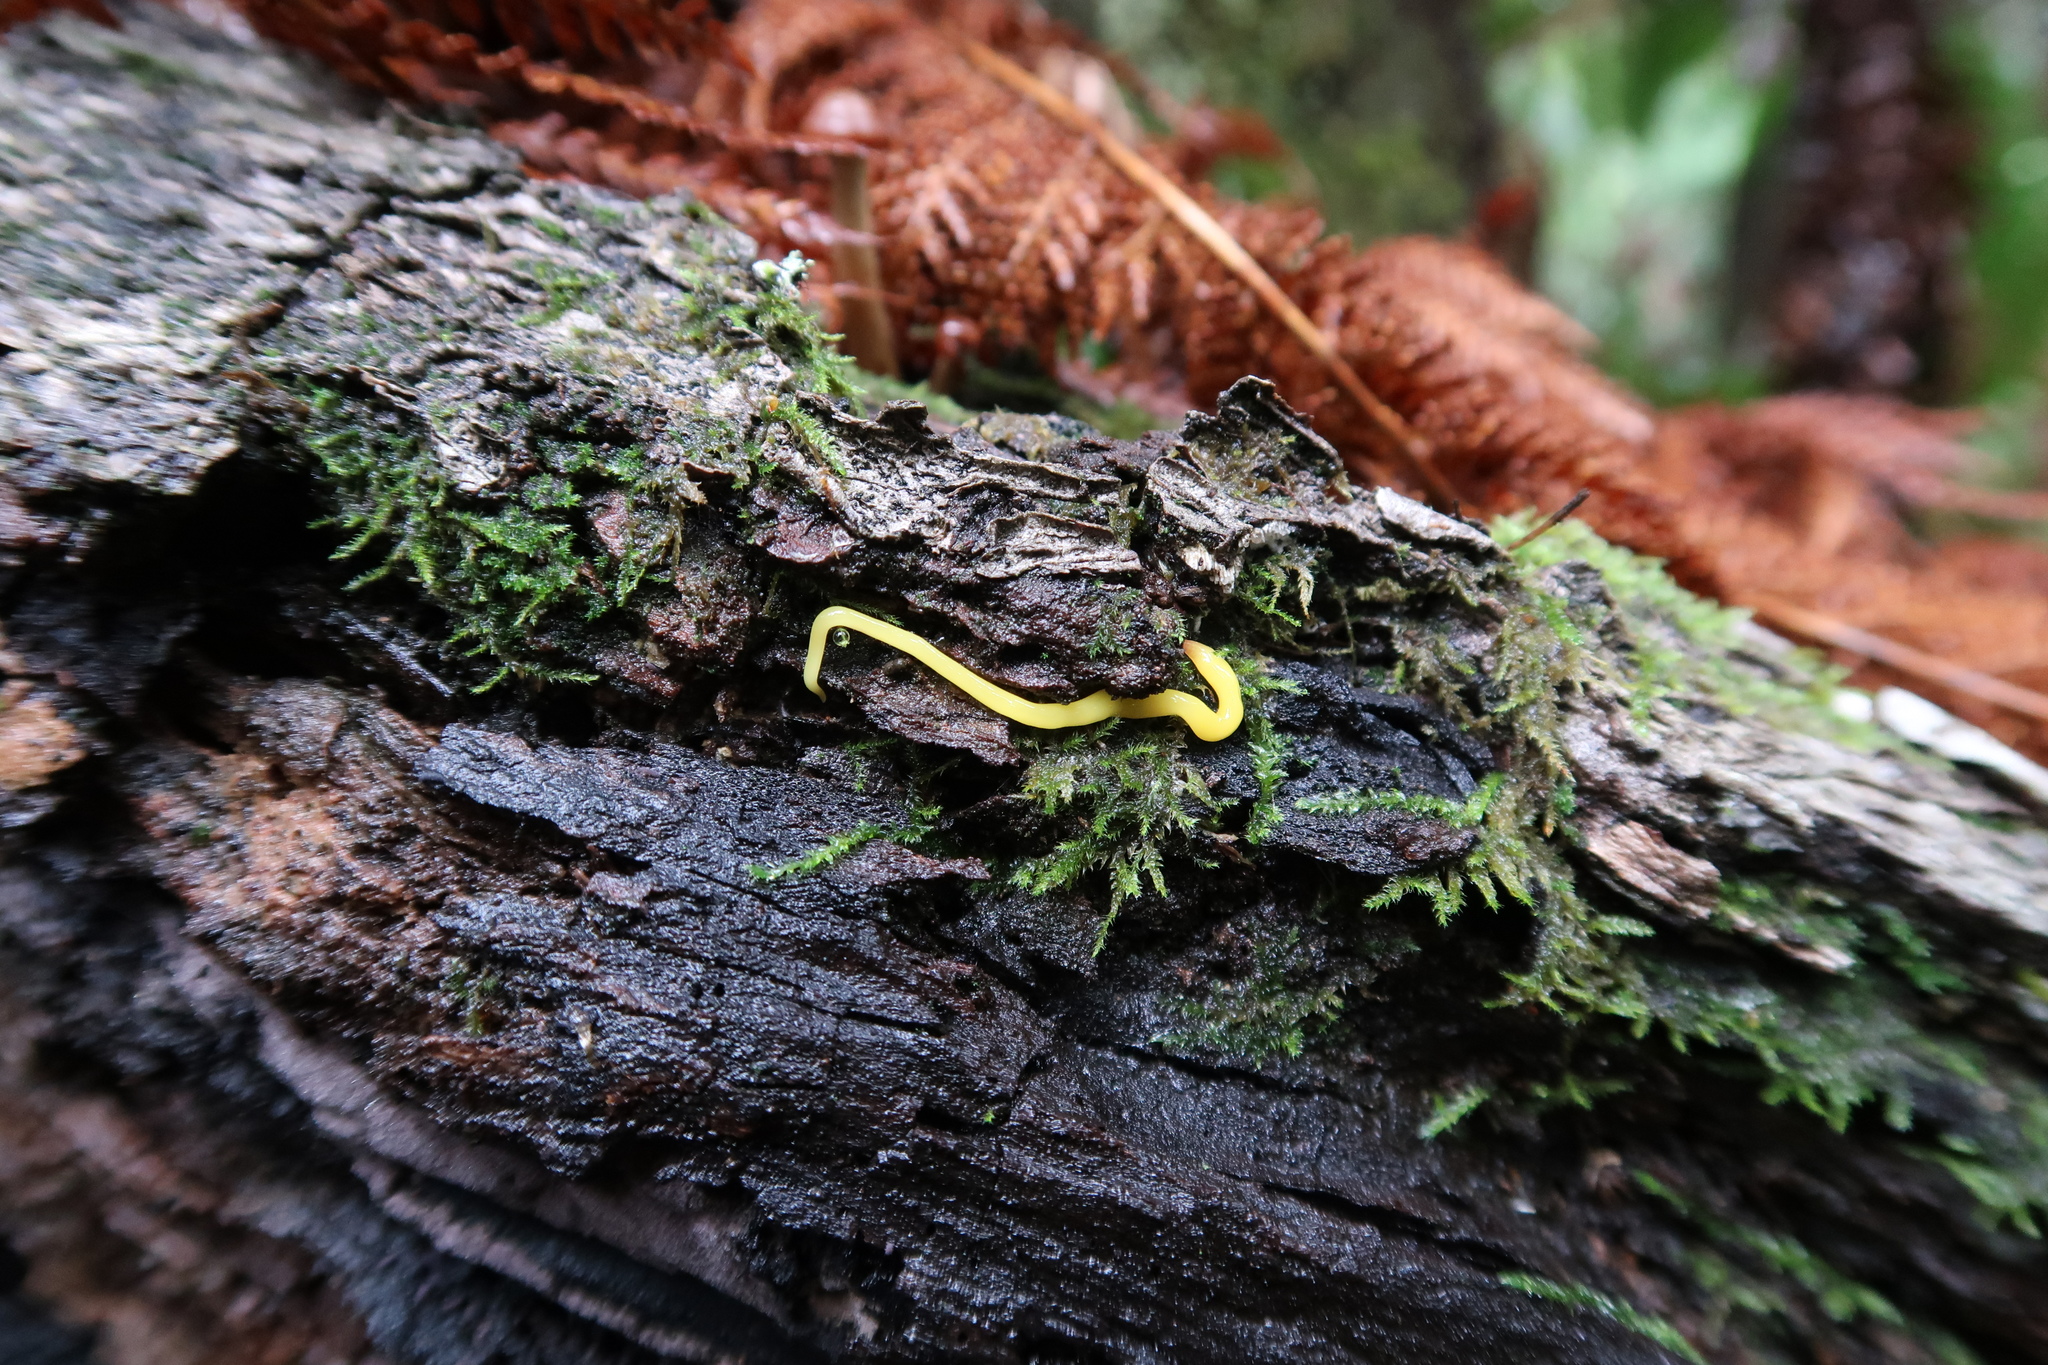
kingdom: Animalia
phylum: Platyhelminthes
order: Tricladida
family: Geoplanidae
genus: Fletchamia
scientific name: Fletchamia sugdeni
